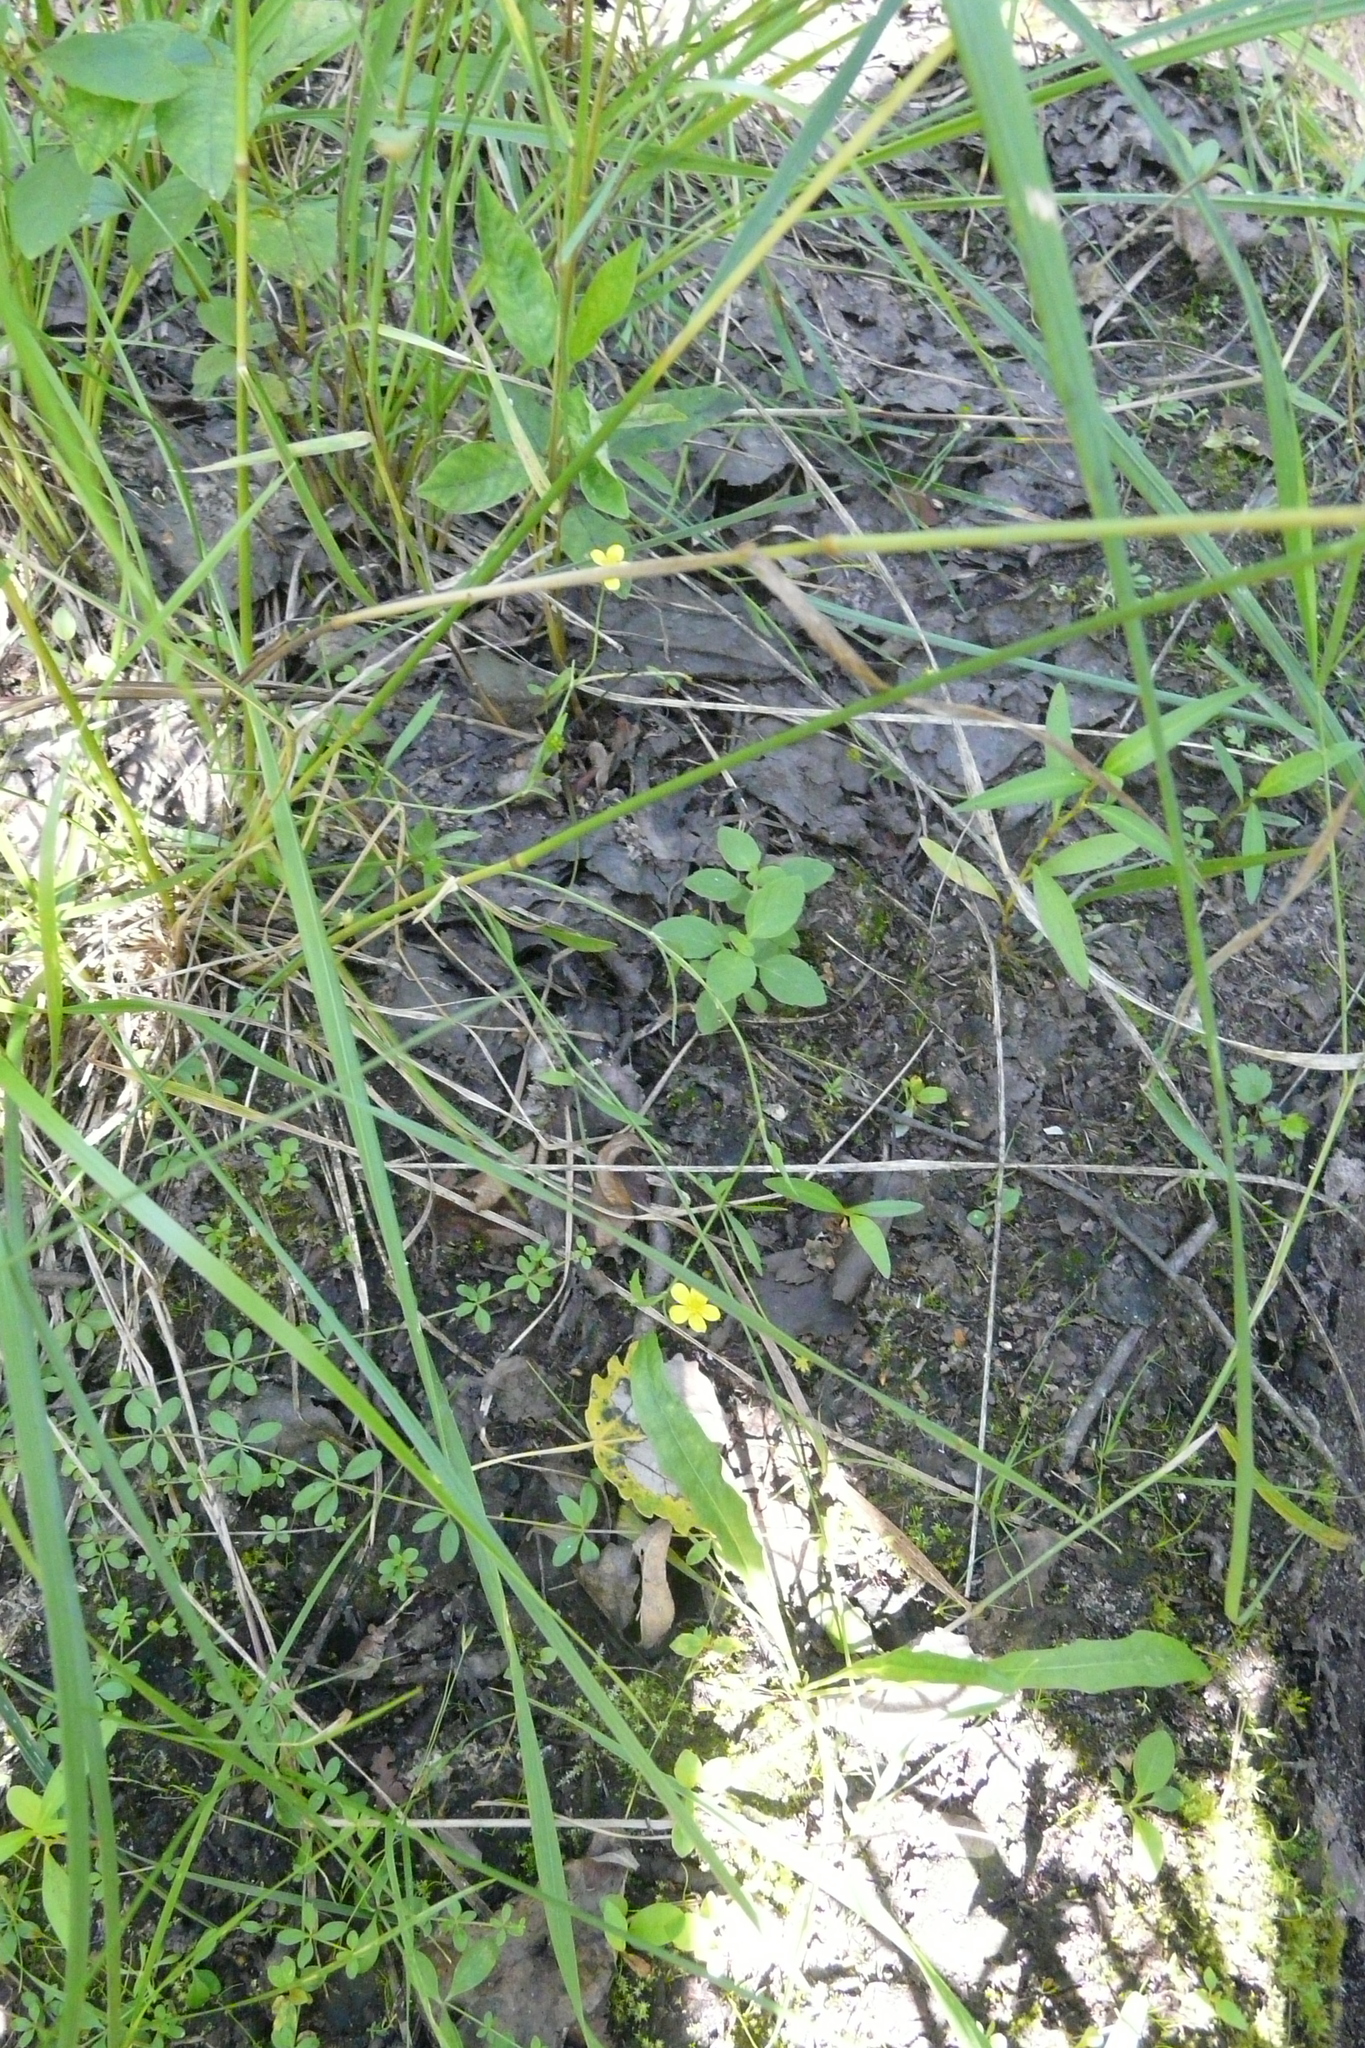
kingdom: Plantae
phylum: Tracheophyta
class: Magnoliopsida
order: Ranunculales
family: Ranunculaceae
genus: Ranunculus
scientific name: Ranunculus flammula
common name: Lesser spearwort
